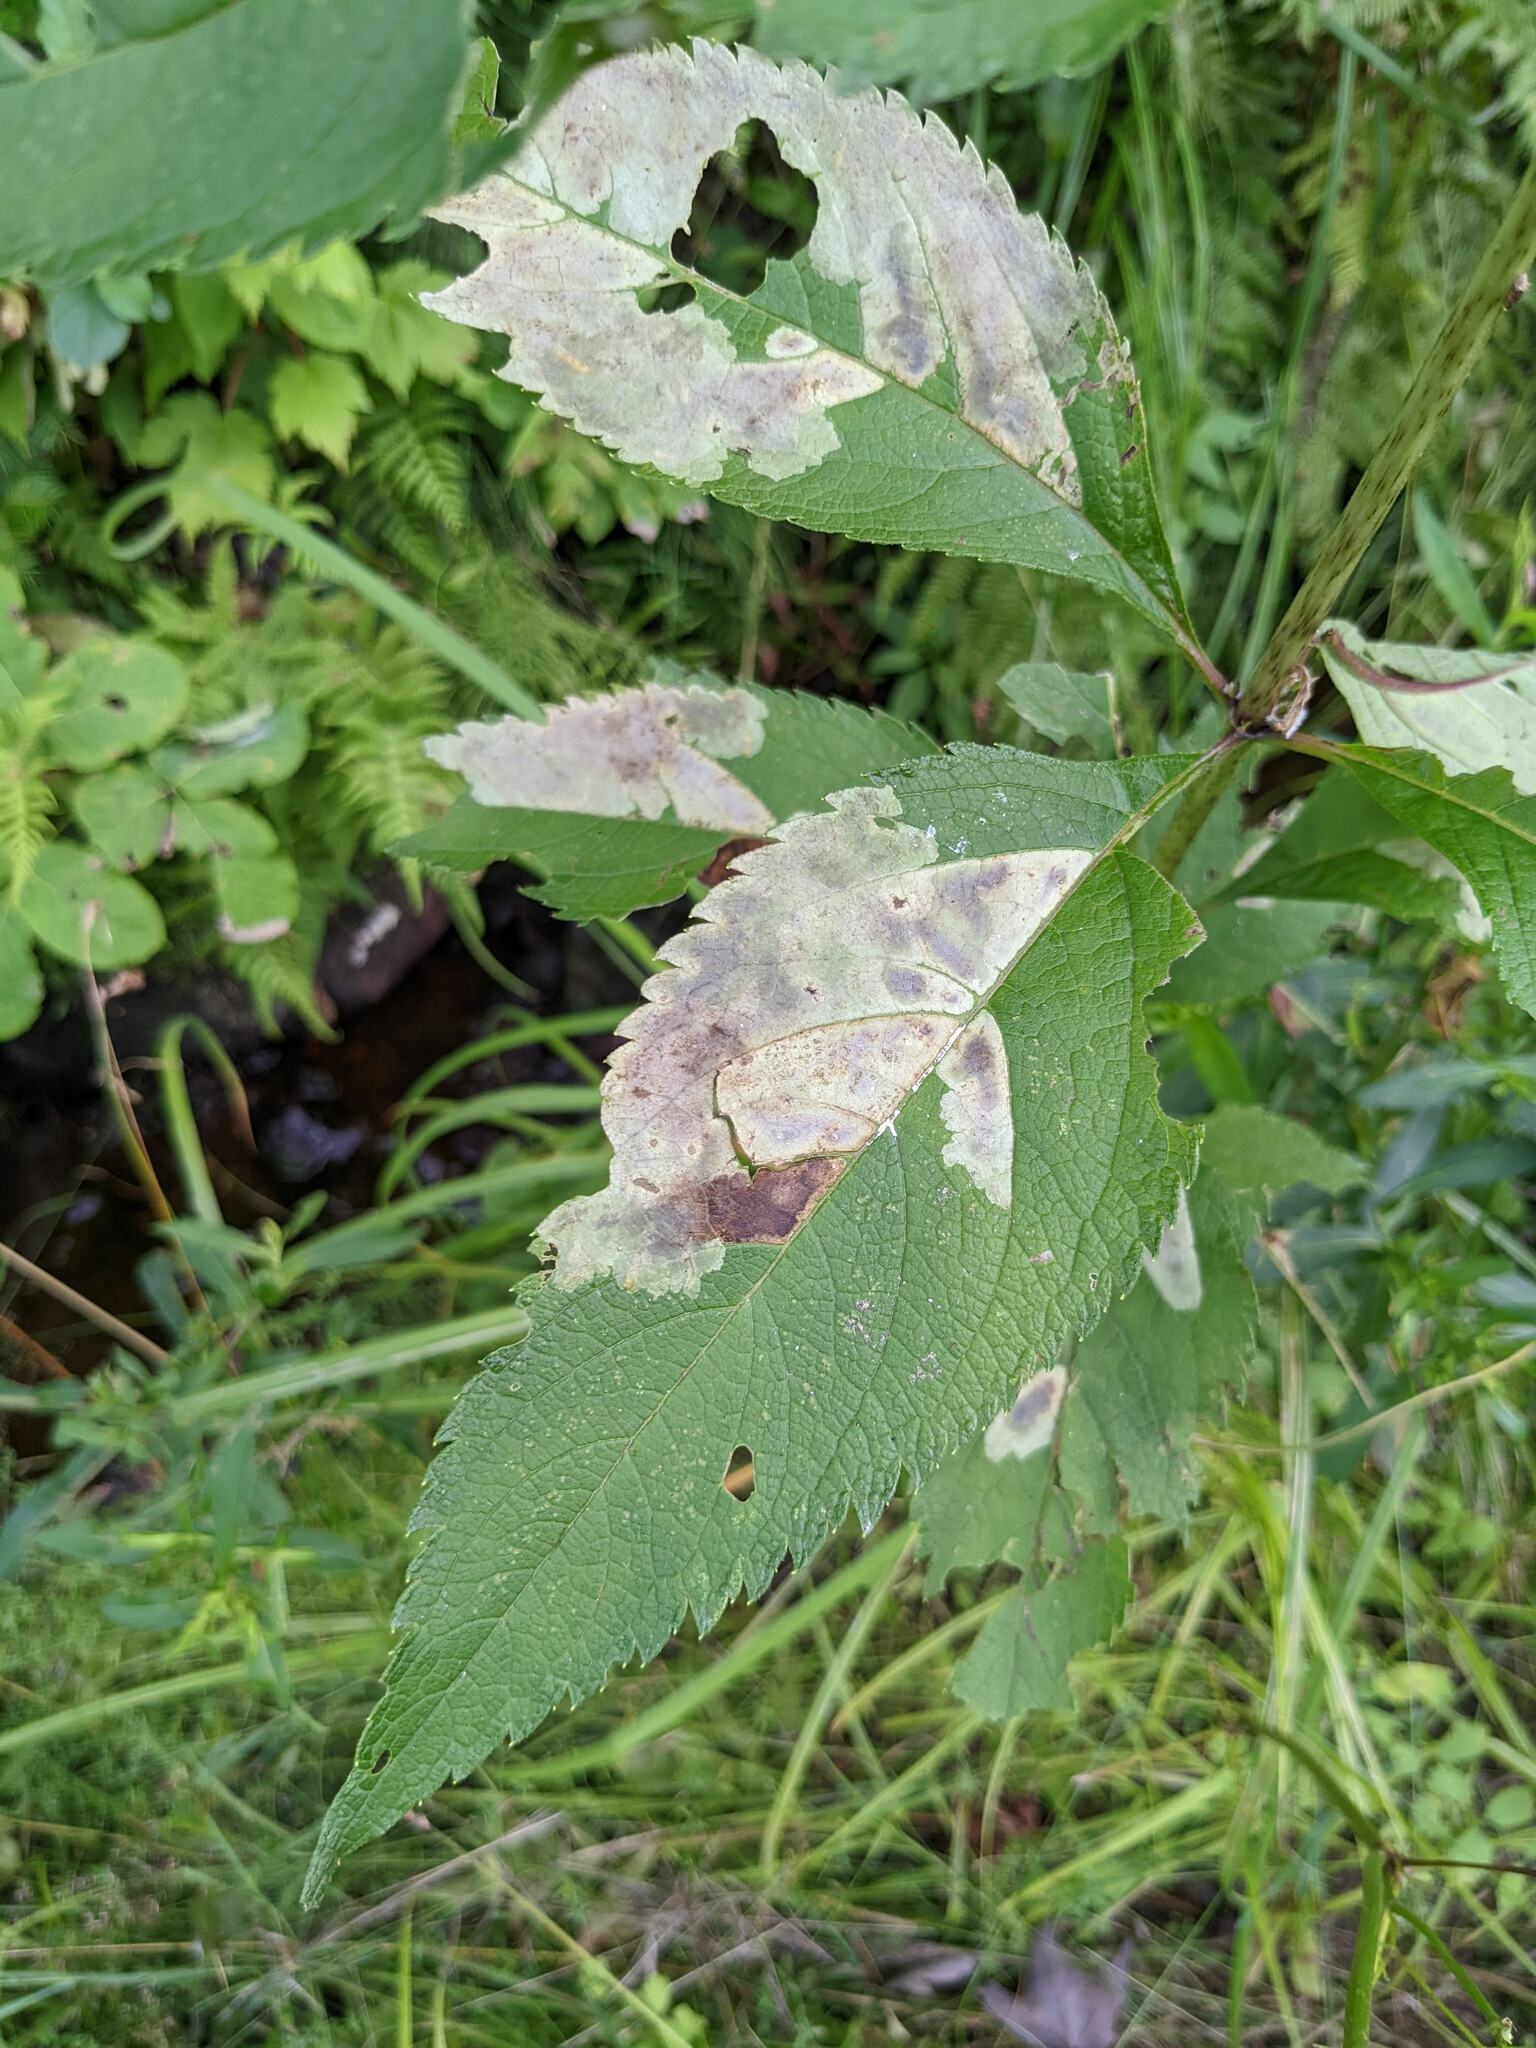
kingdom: Animalia
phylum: Arthropoda
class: Insecta
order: Diptera
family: Agromyzidae
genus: Calycomyza
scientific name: Calycomyza flavinotum
